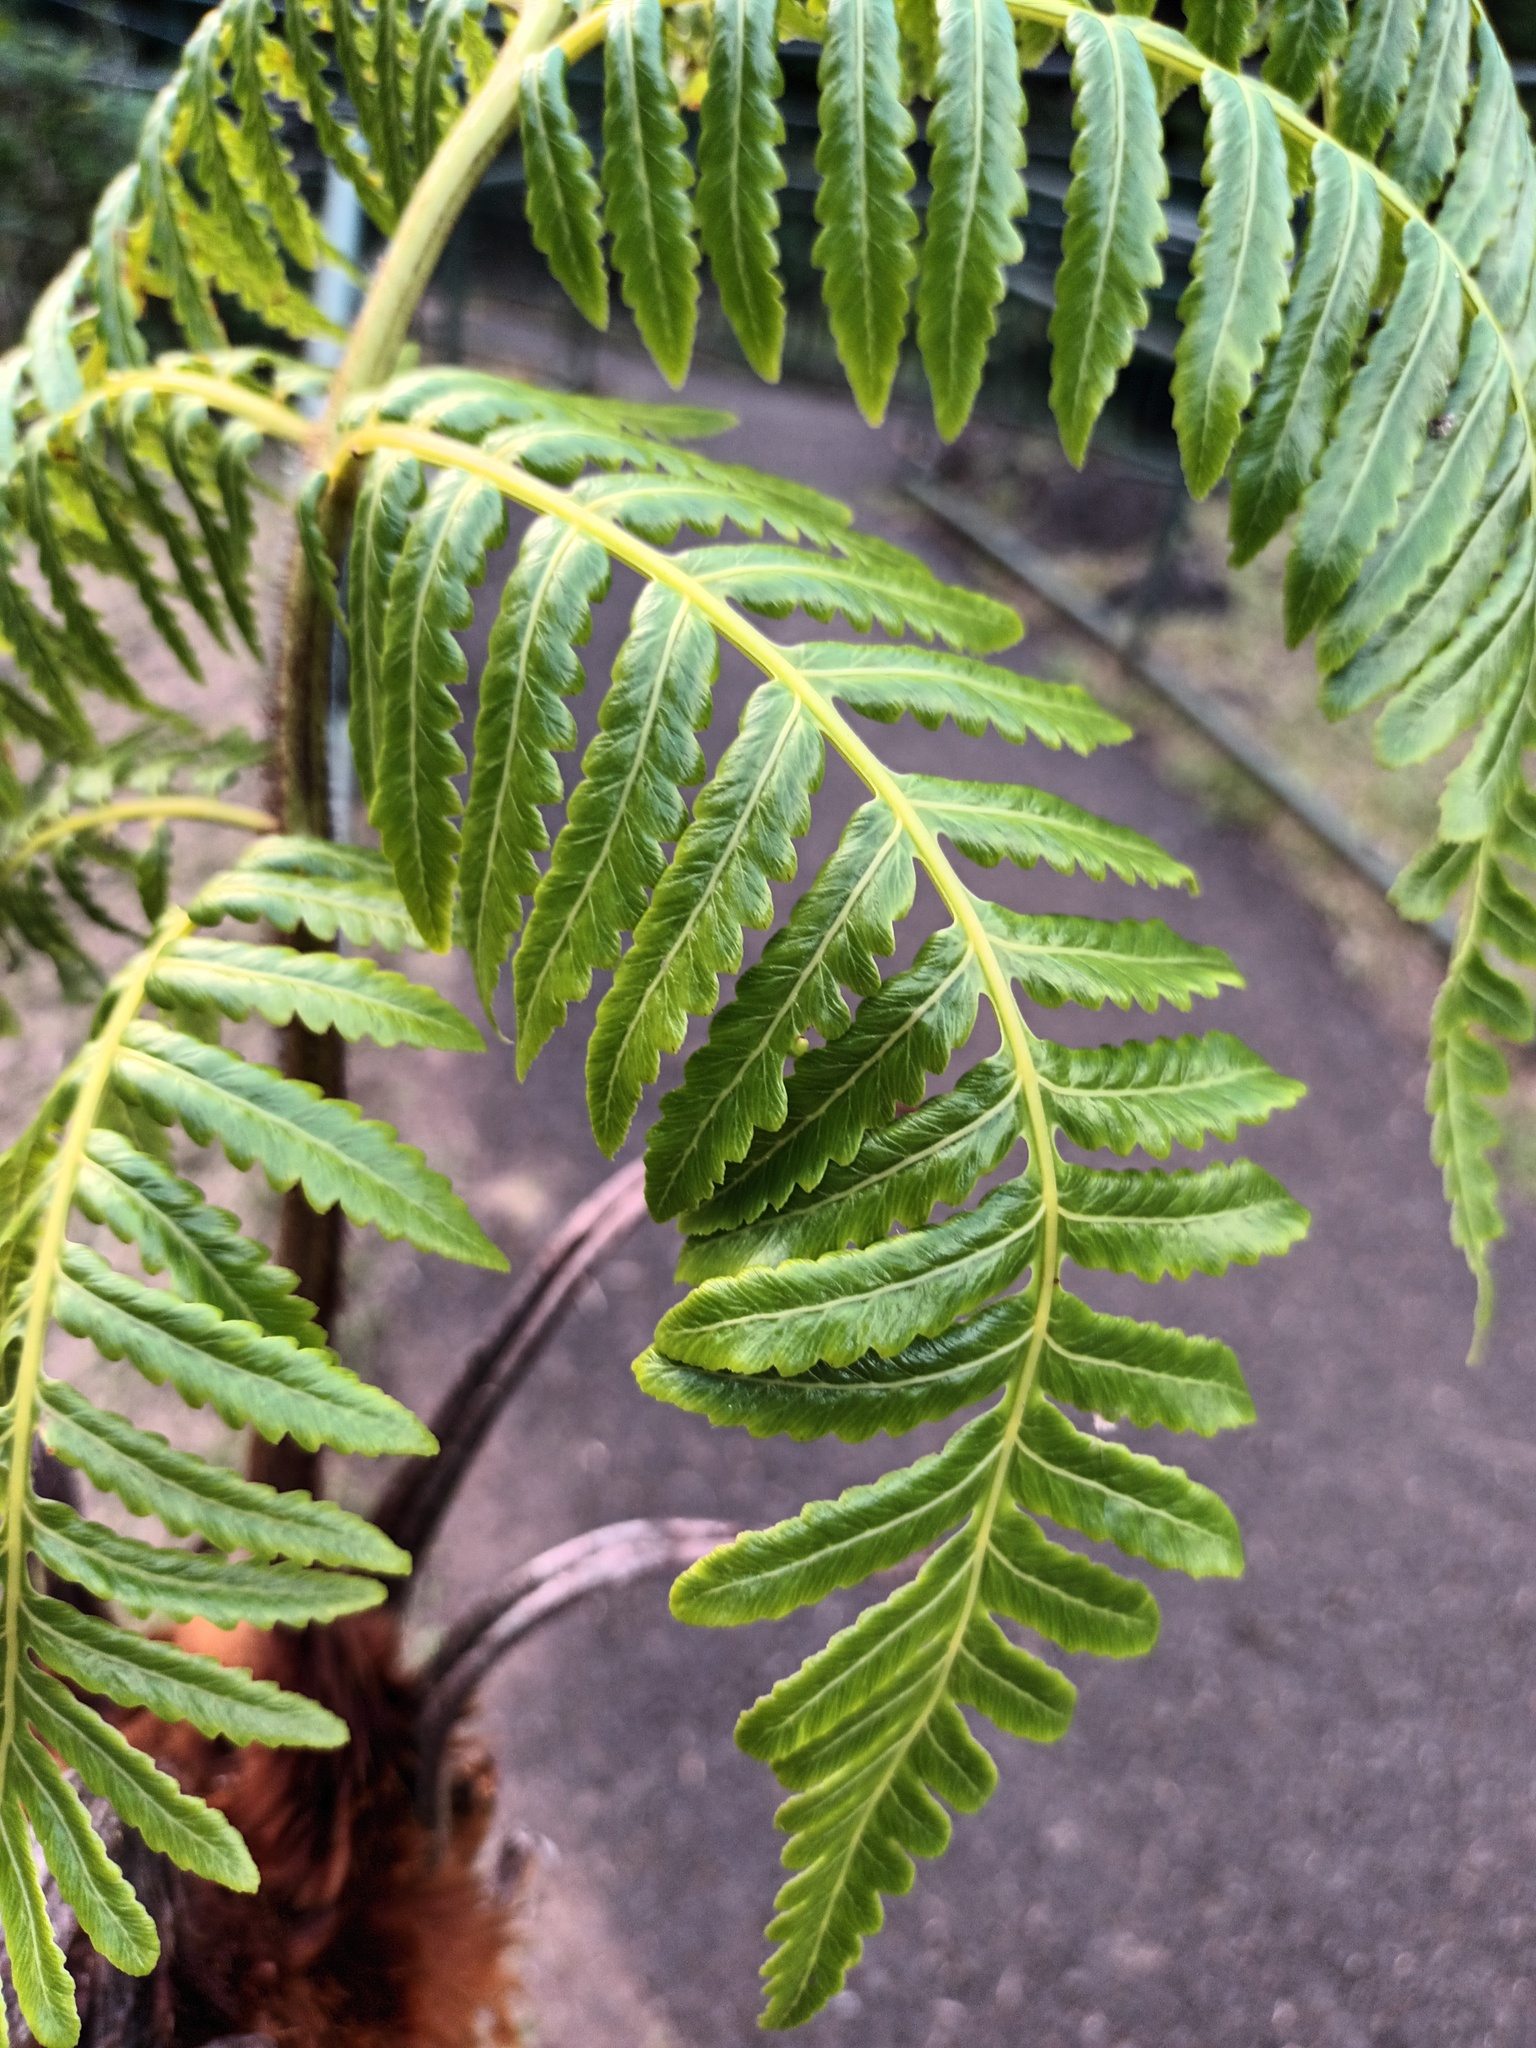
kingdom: Plantae
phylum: Tracheophyta
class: Polypodiopsida
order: Cyatheales
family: Cibotiaceae
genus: Cibotium
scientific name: Cibotium glaucum
